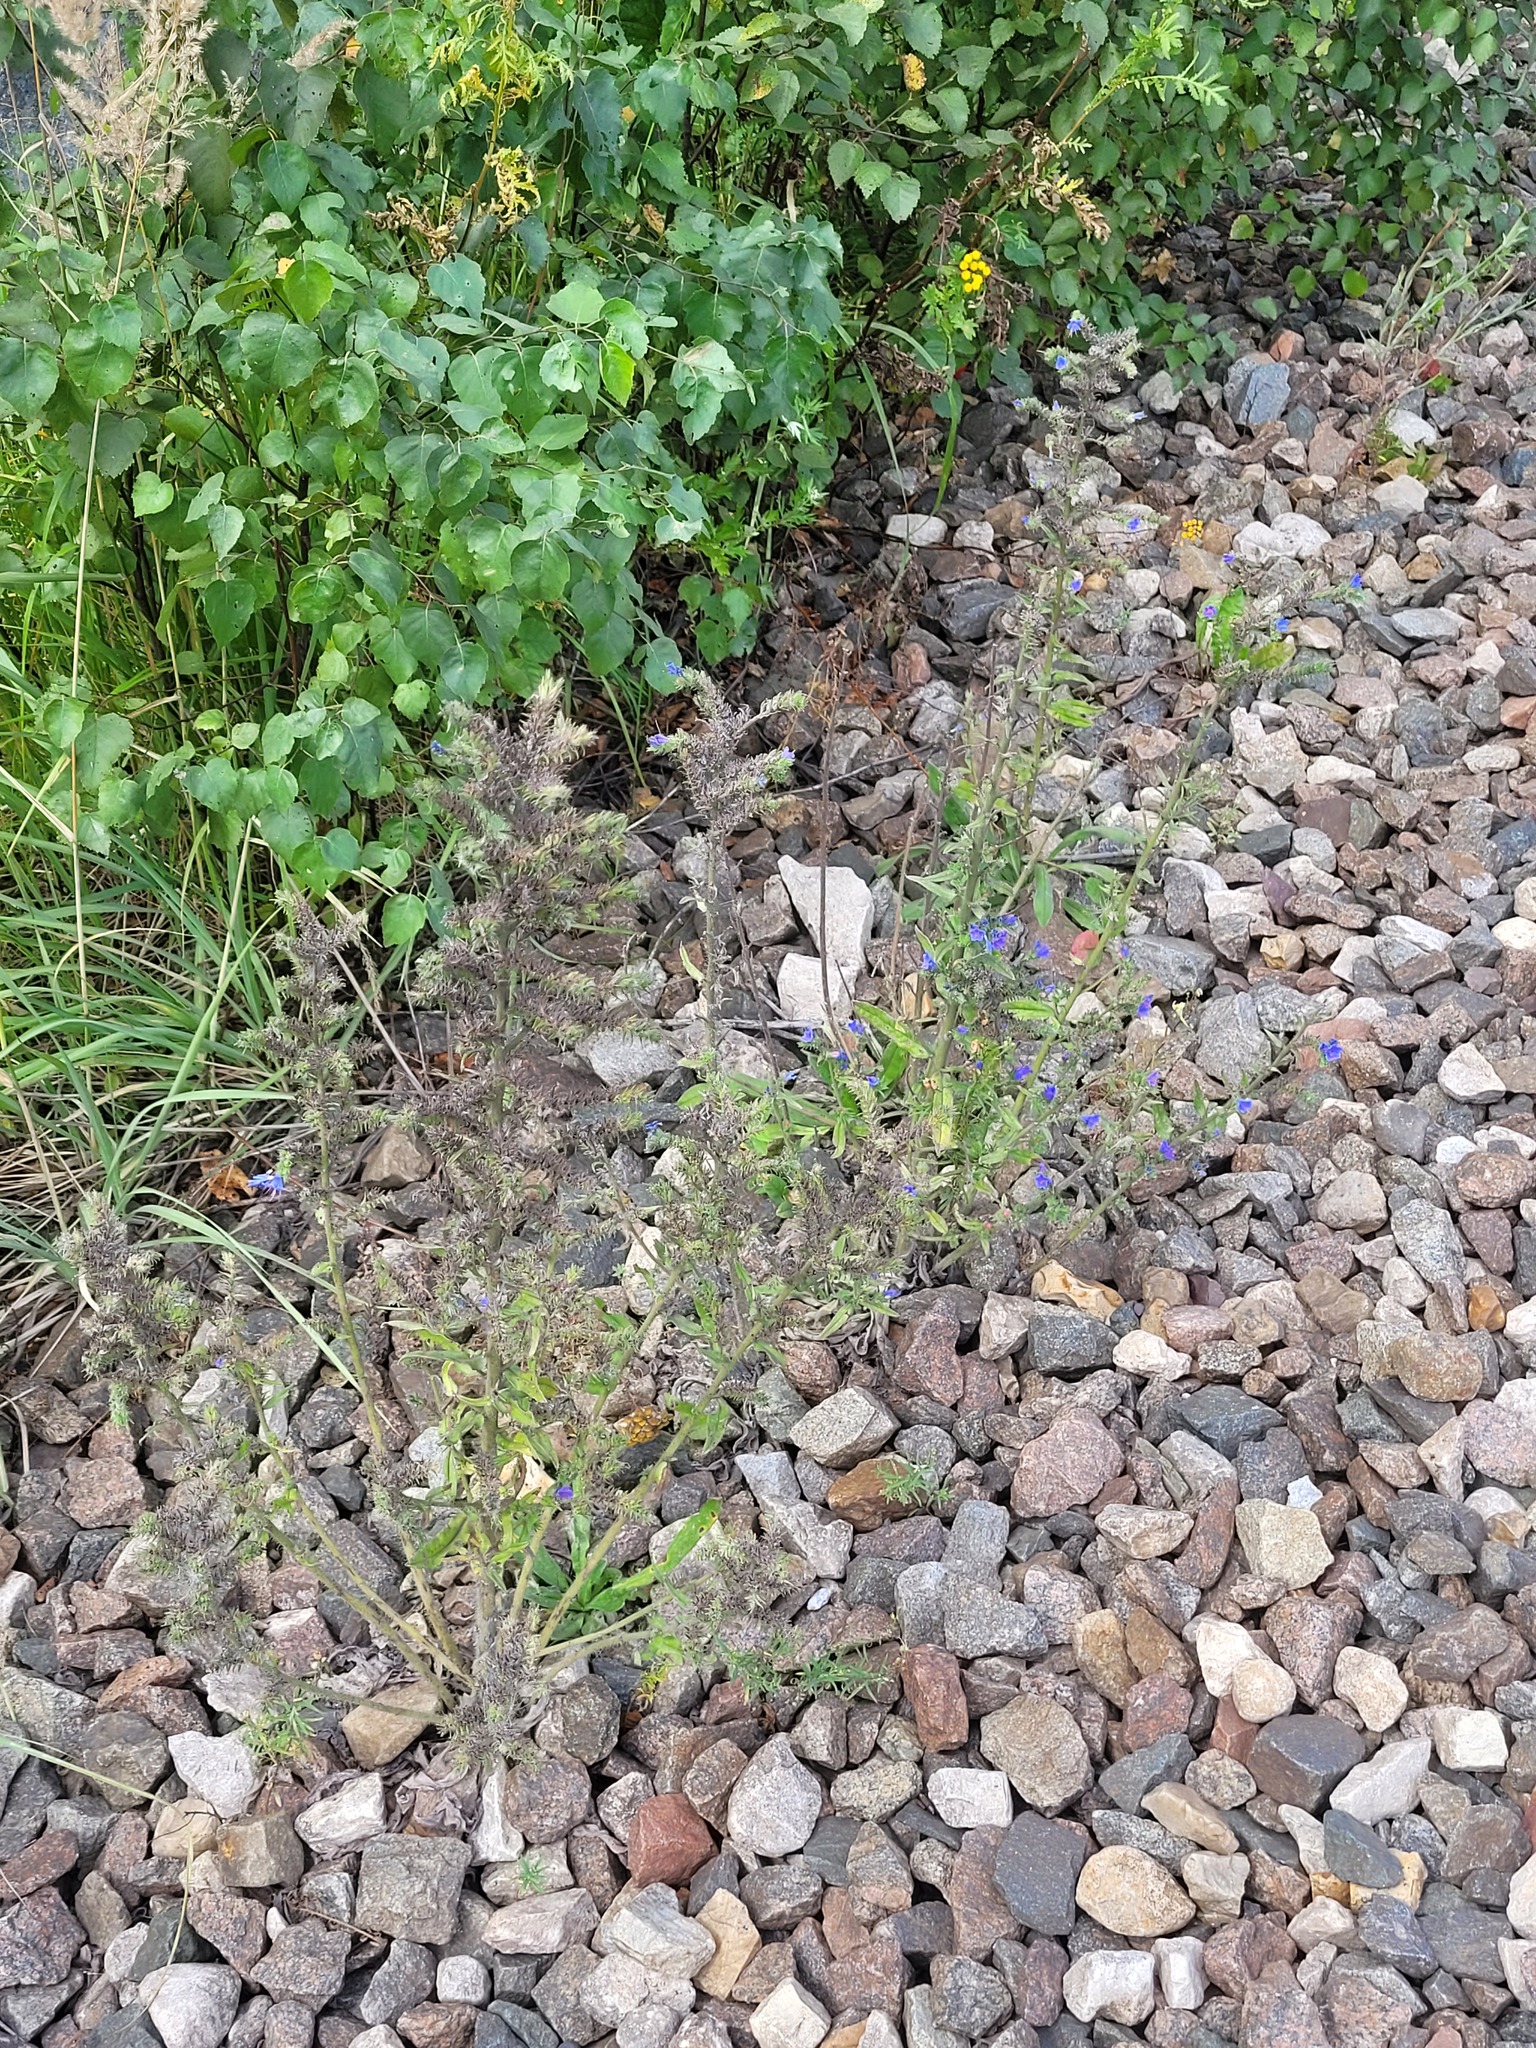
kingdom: Plantae
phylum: Tracheophyta
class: Magnoliopsida
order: Boraginales
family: Boraginaceae
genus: Echium
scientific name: Echium vulgare
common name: Common viper's bugloss
